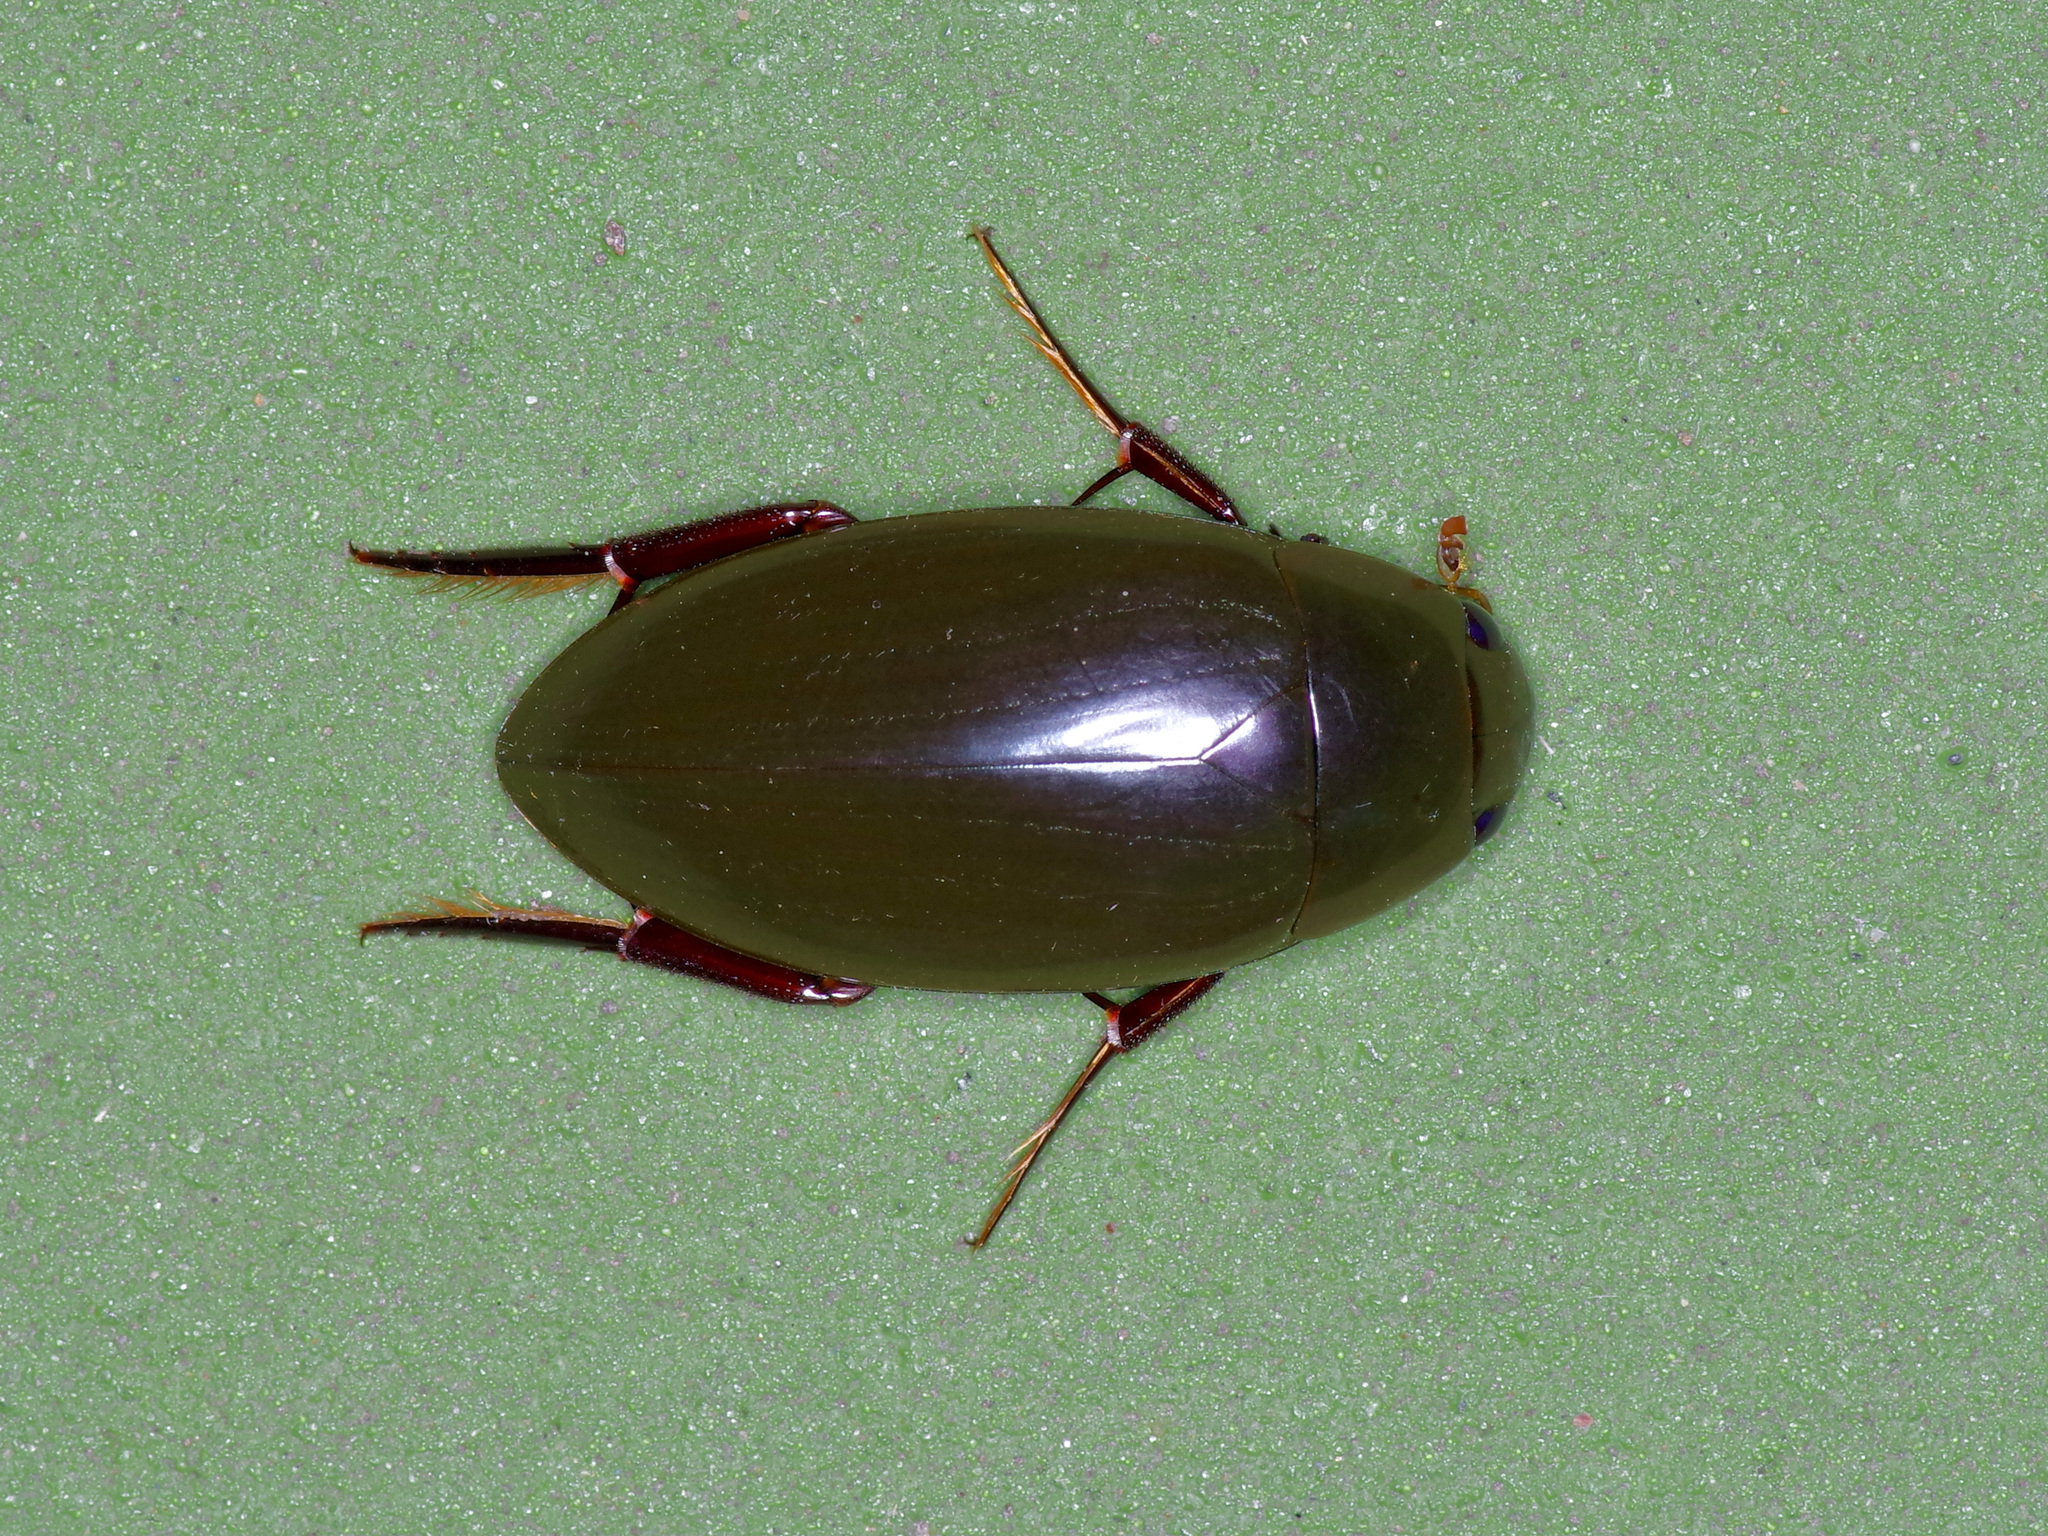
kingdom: Animalia
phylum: Arthropoda
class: Insecta
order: Coleoptera
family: Hydrophilidae
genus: Hydrophilus
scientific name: Hydrophilus triangularis
